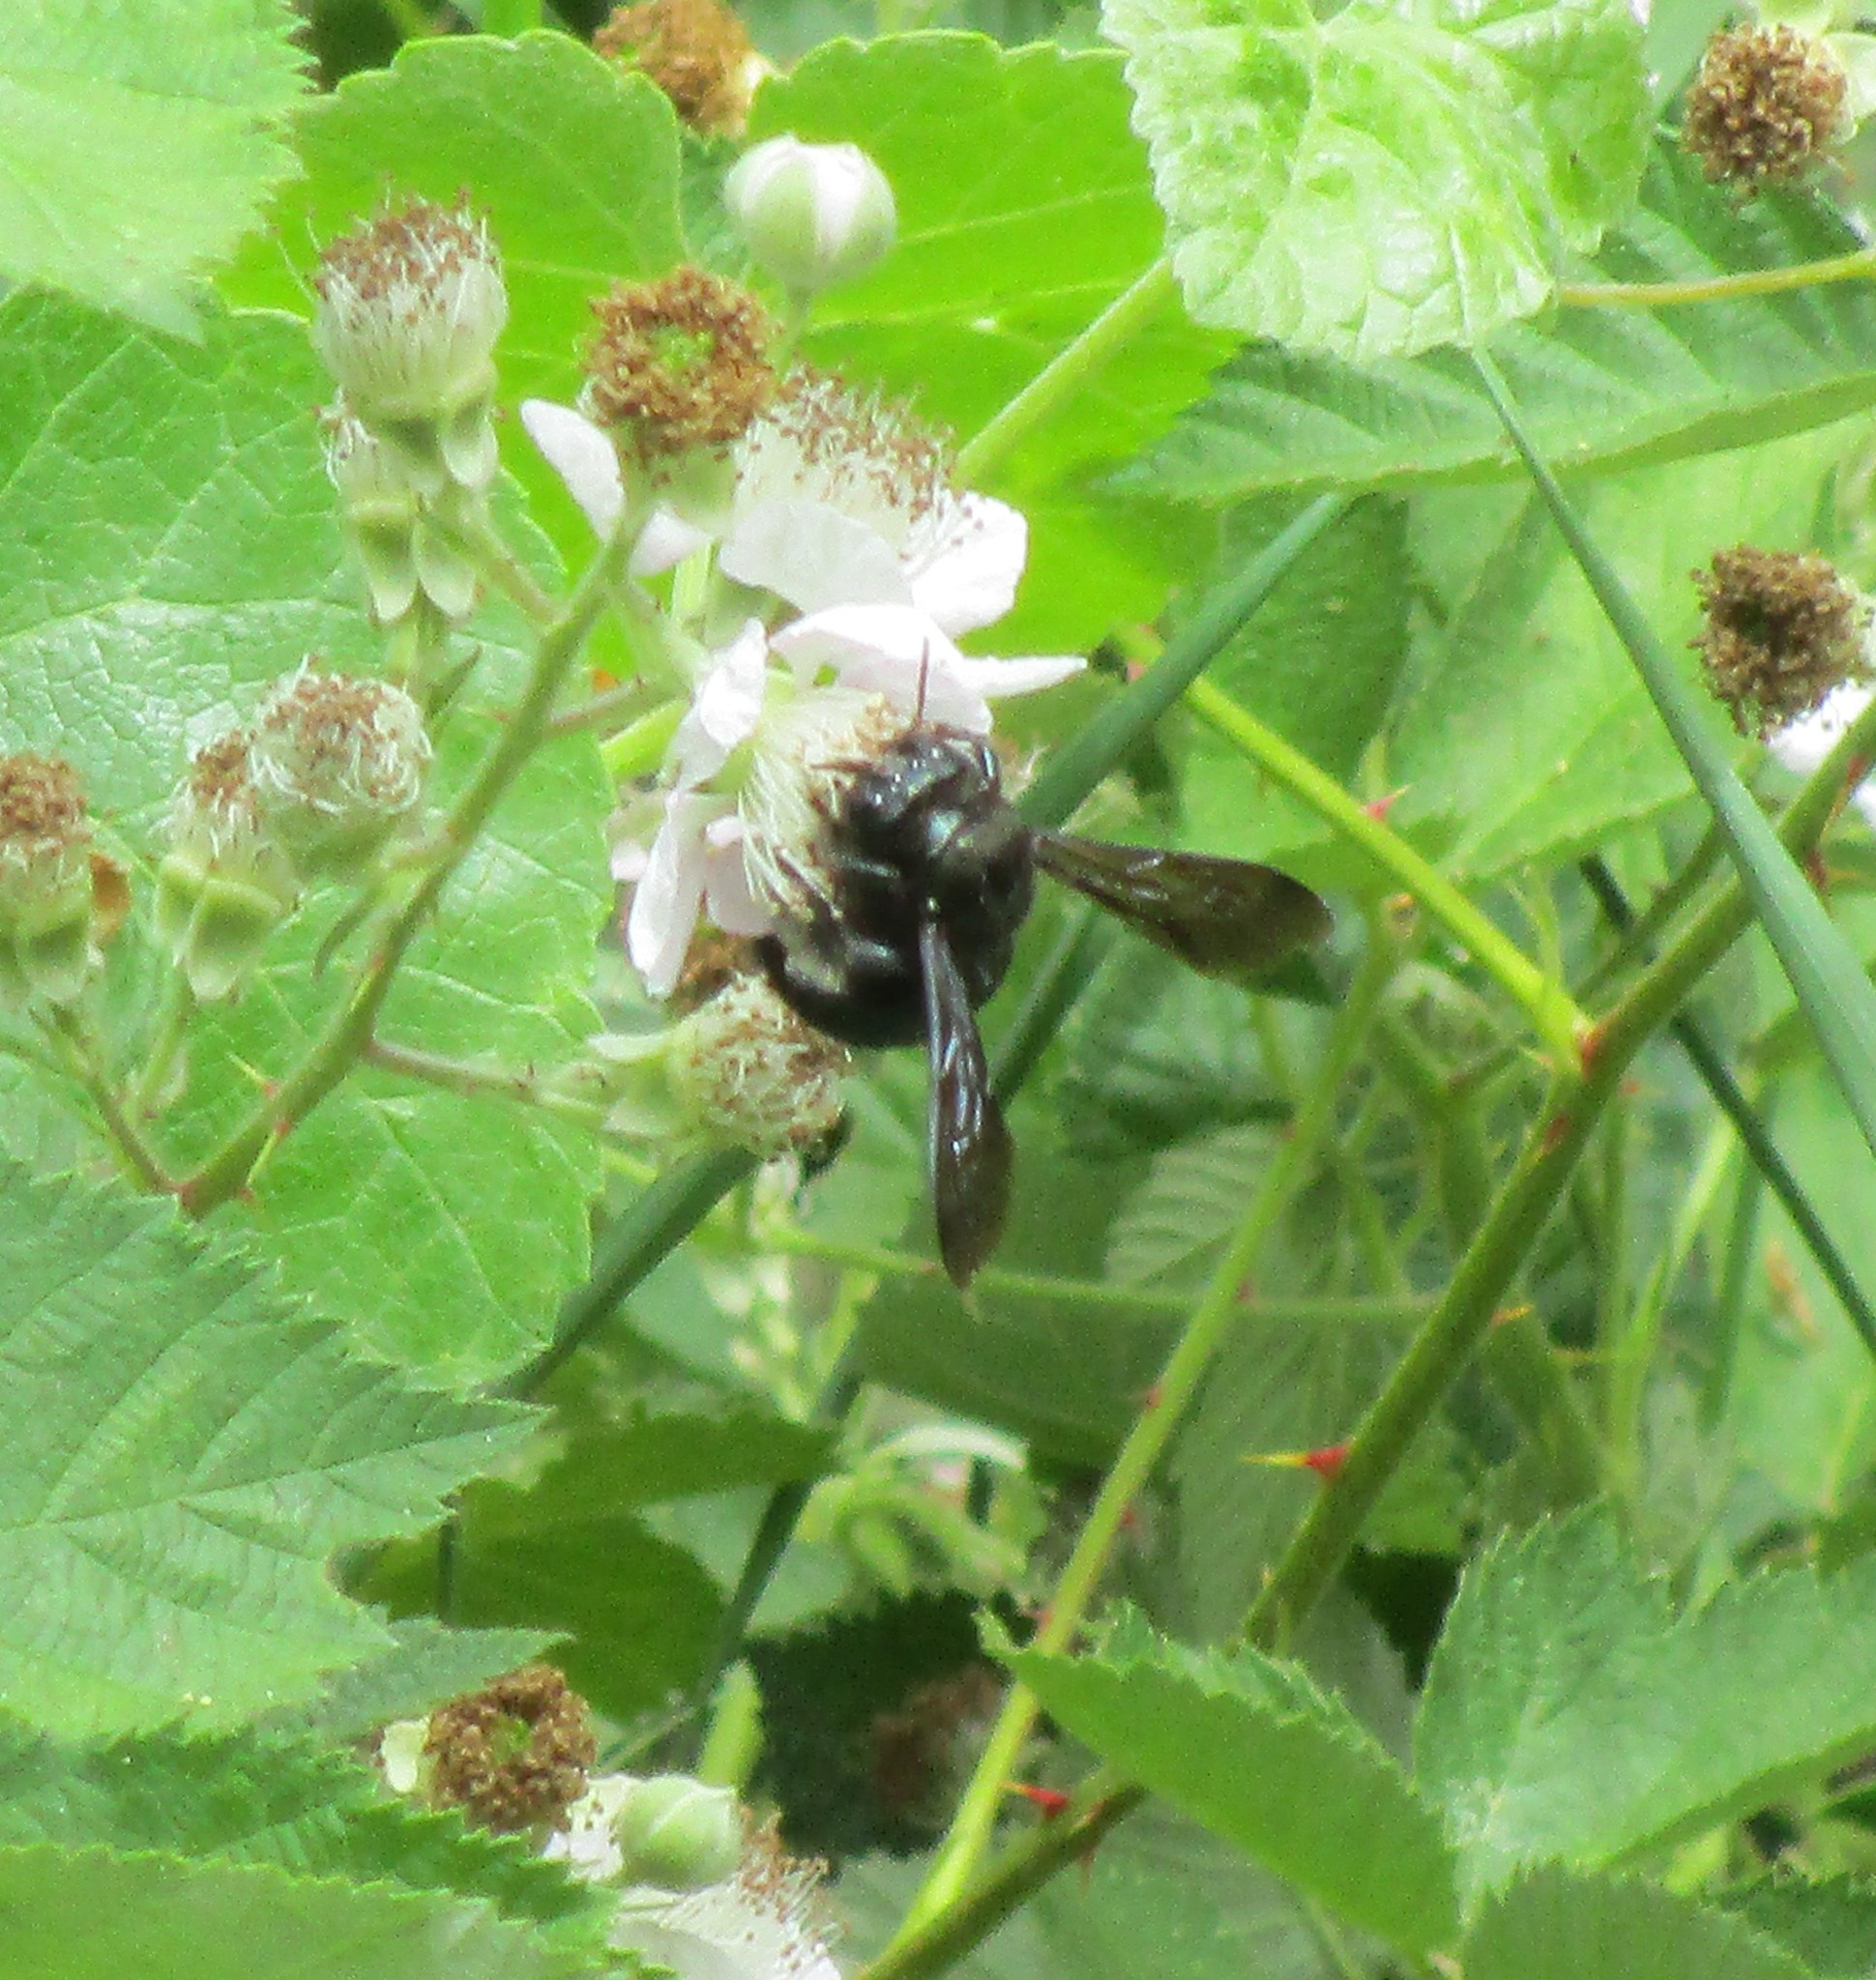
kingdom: Animalia
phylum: Arthropoda
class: Insecta
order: Hymenoptera
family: Apidae
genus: Xylocopa
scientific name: Xylocopa californica
